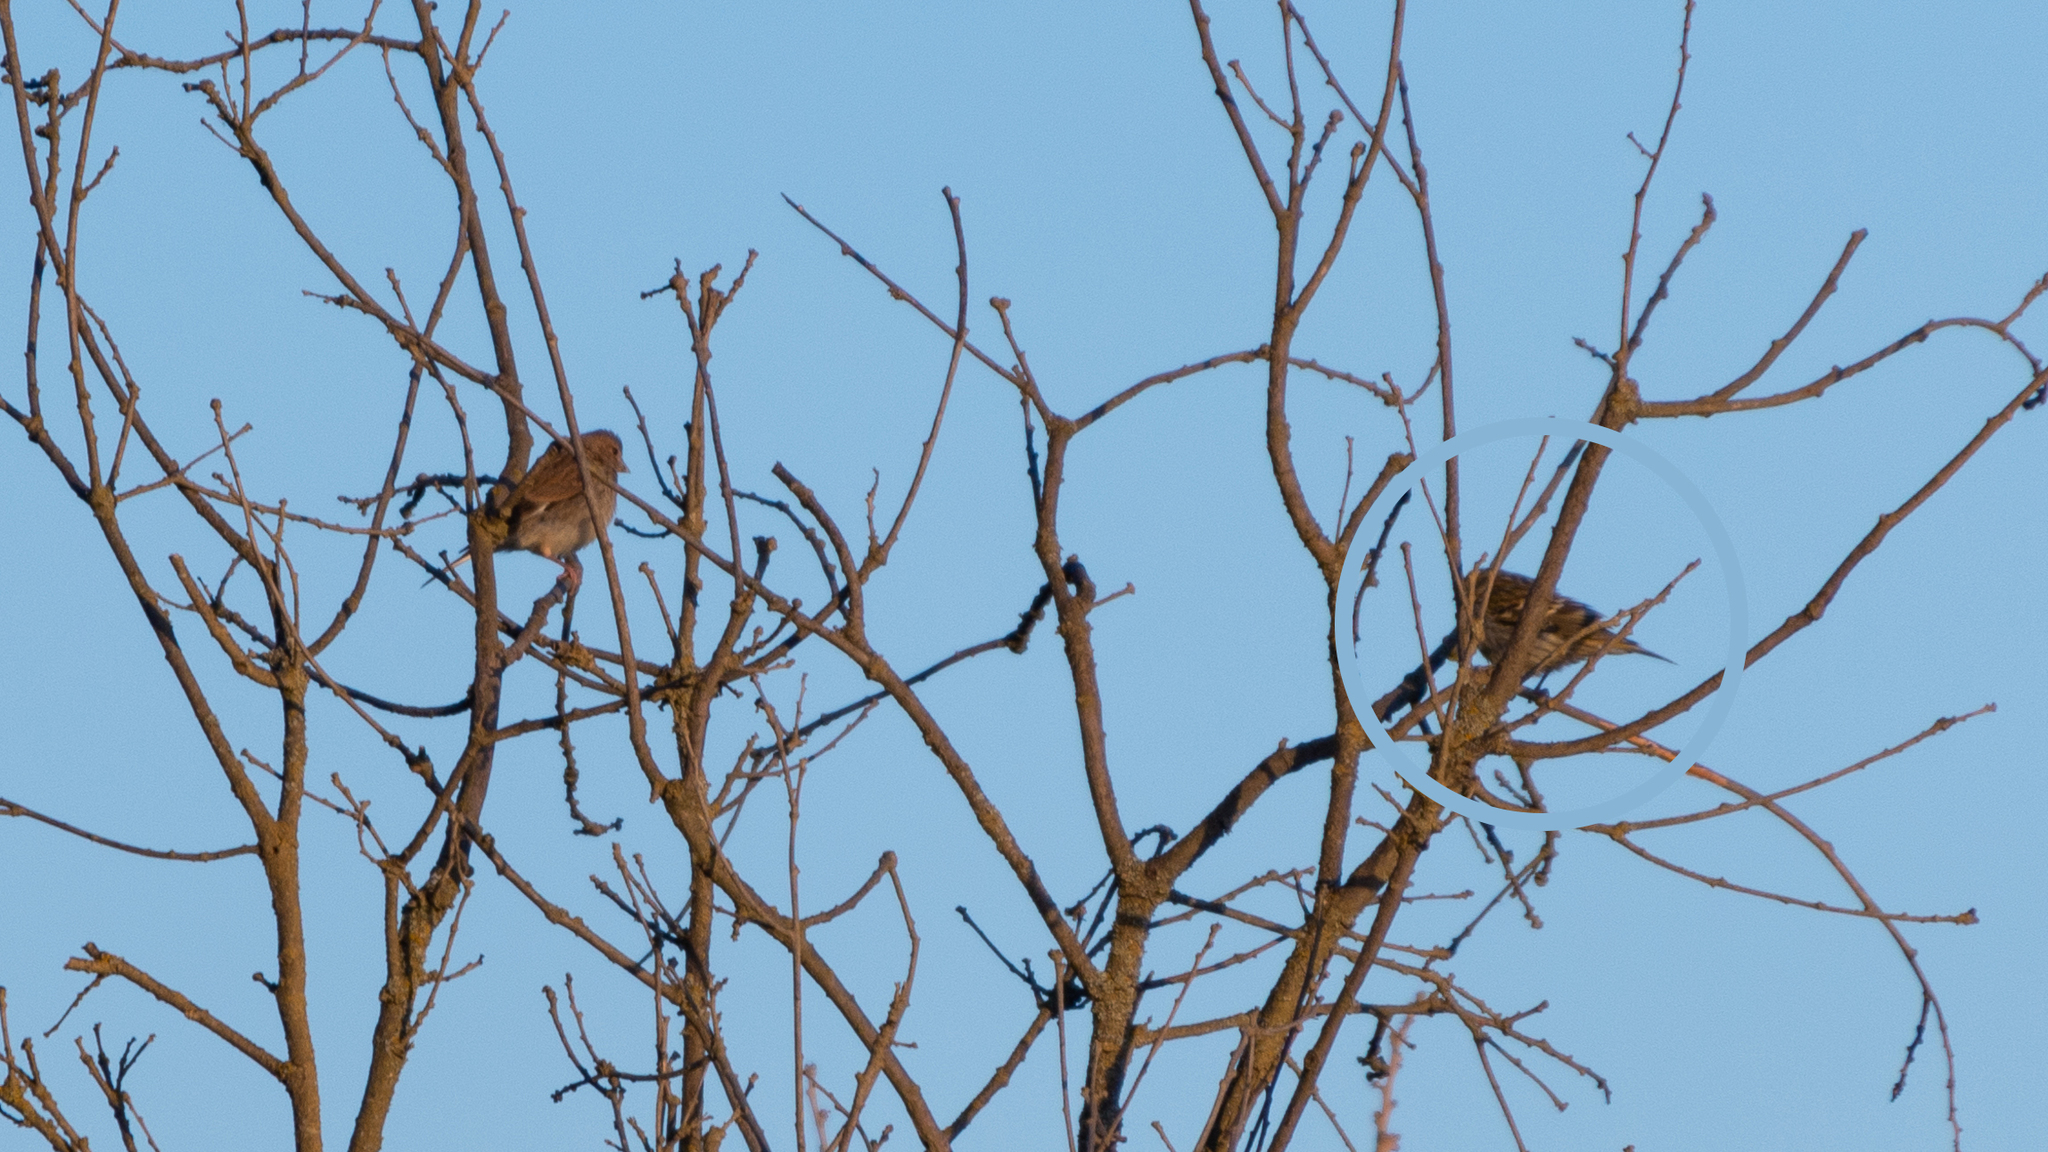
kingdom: Animalia
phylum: Chordata
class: Aves
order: Passeriformes
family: Fringillidae
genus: Serinus
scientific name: Serinus serinus
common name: European serin
